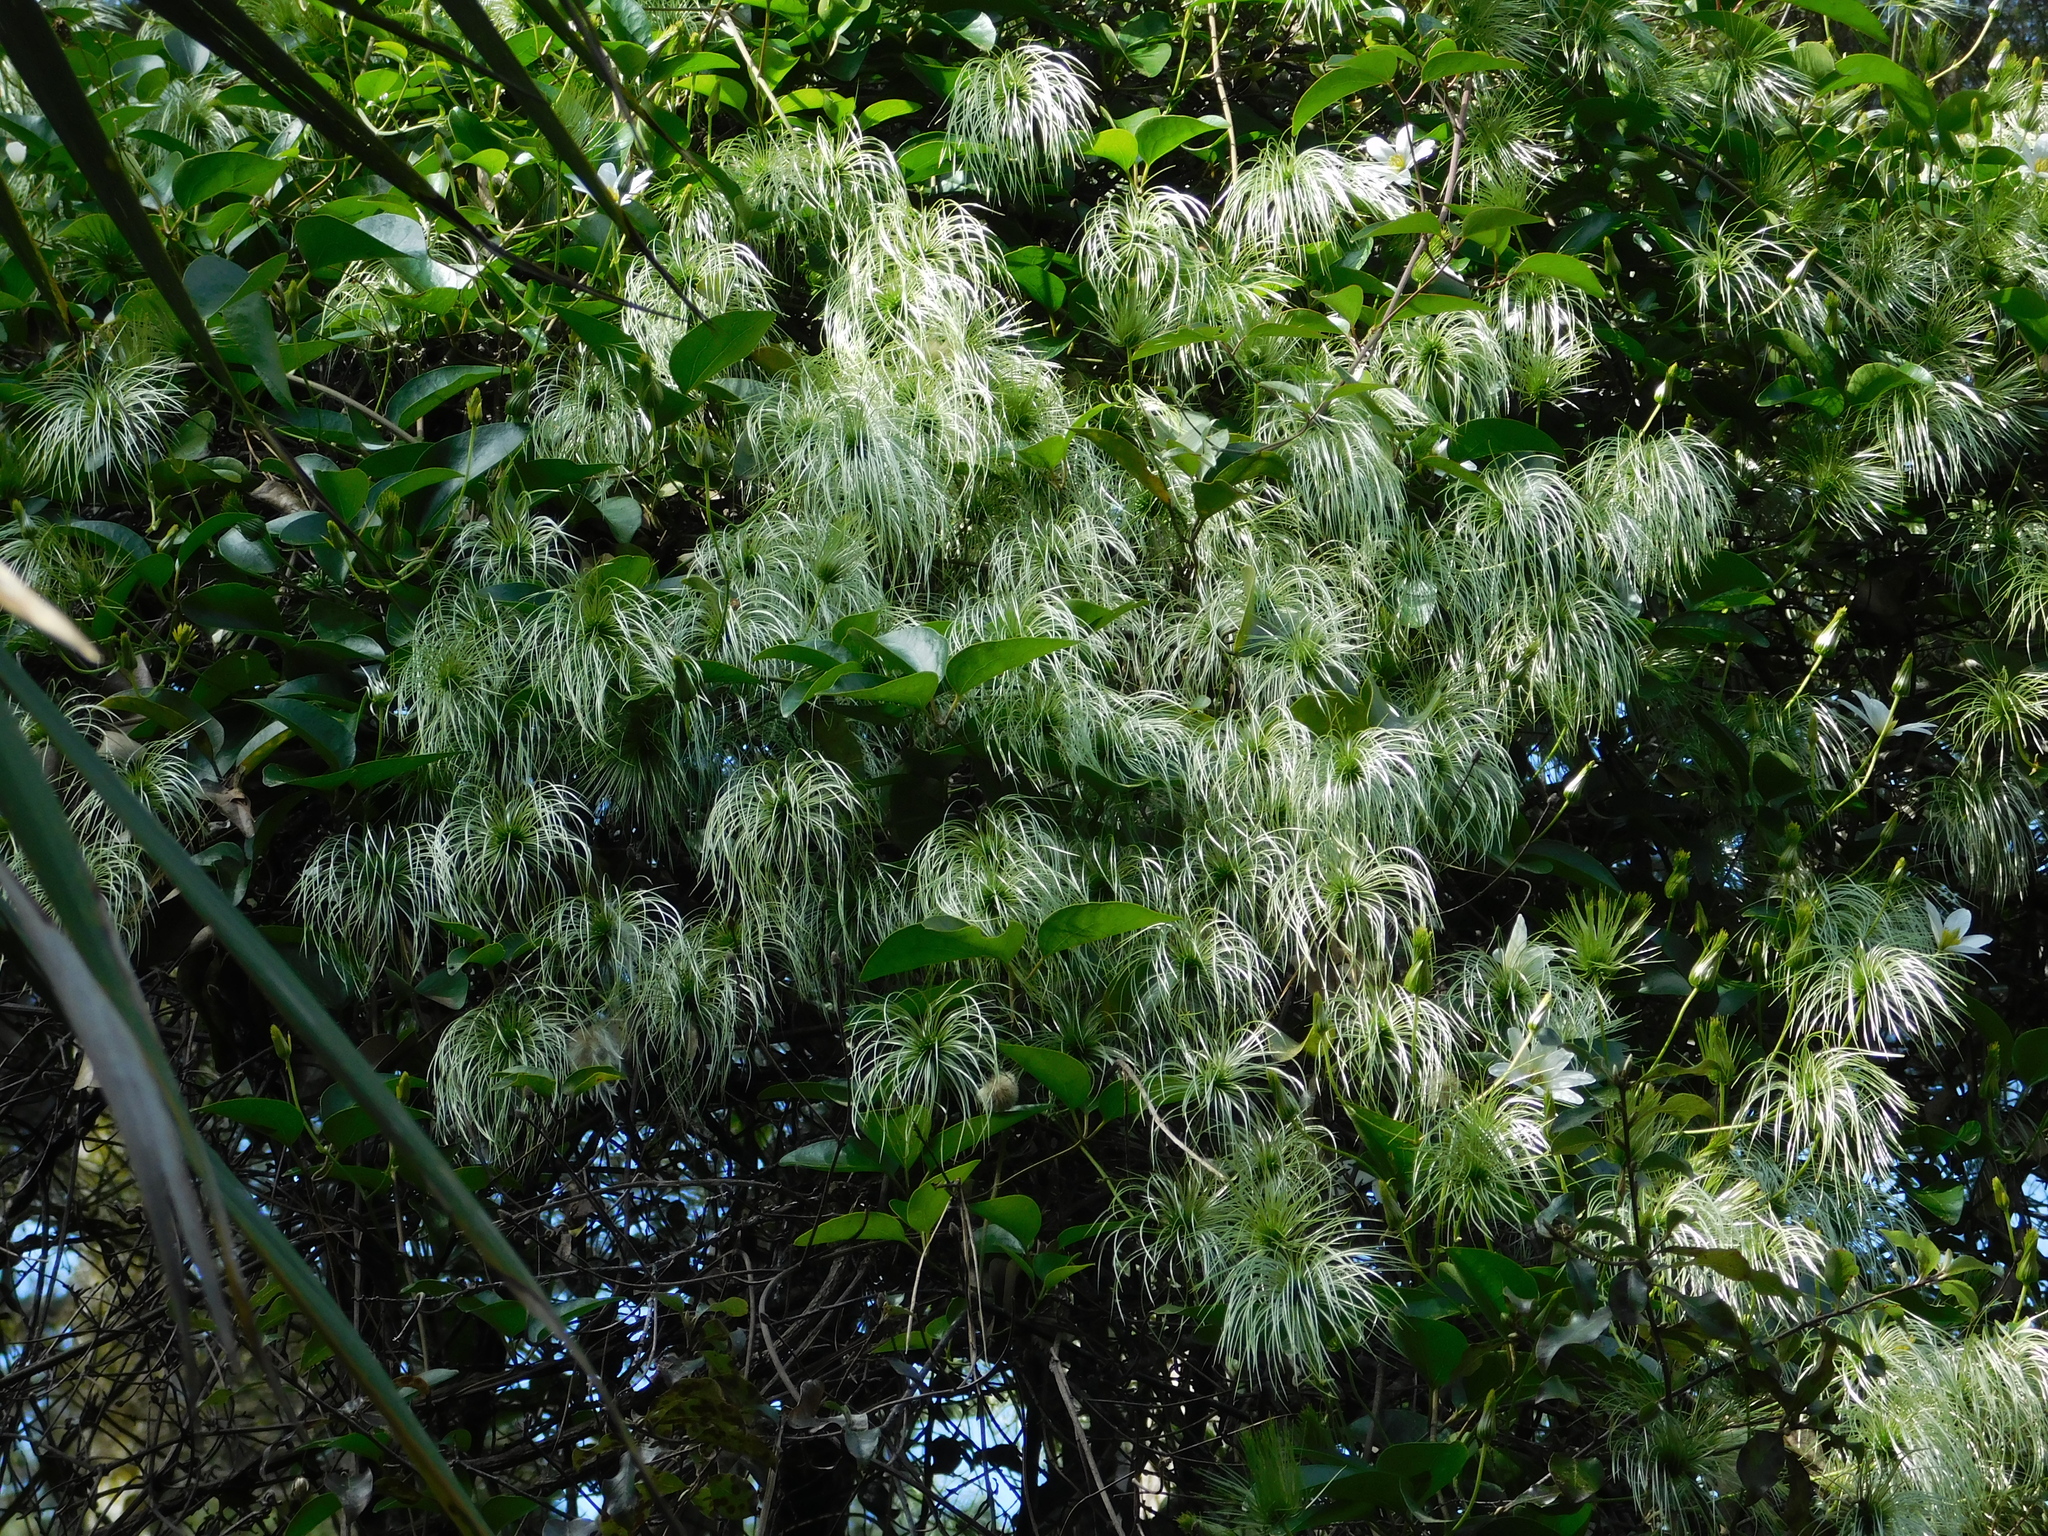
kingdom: Plantae
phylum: Tracheophyta
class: Magnoliopsida
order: Ranunculales
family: Ranunculaceae
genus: Clematis
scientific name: Clematis paniculata
